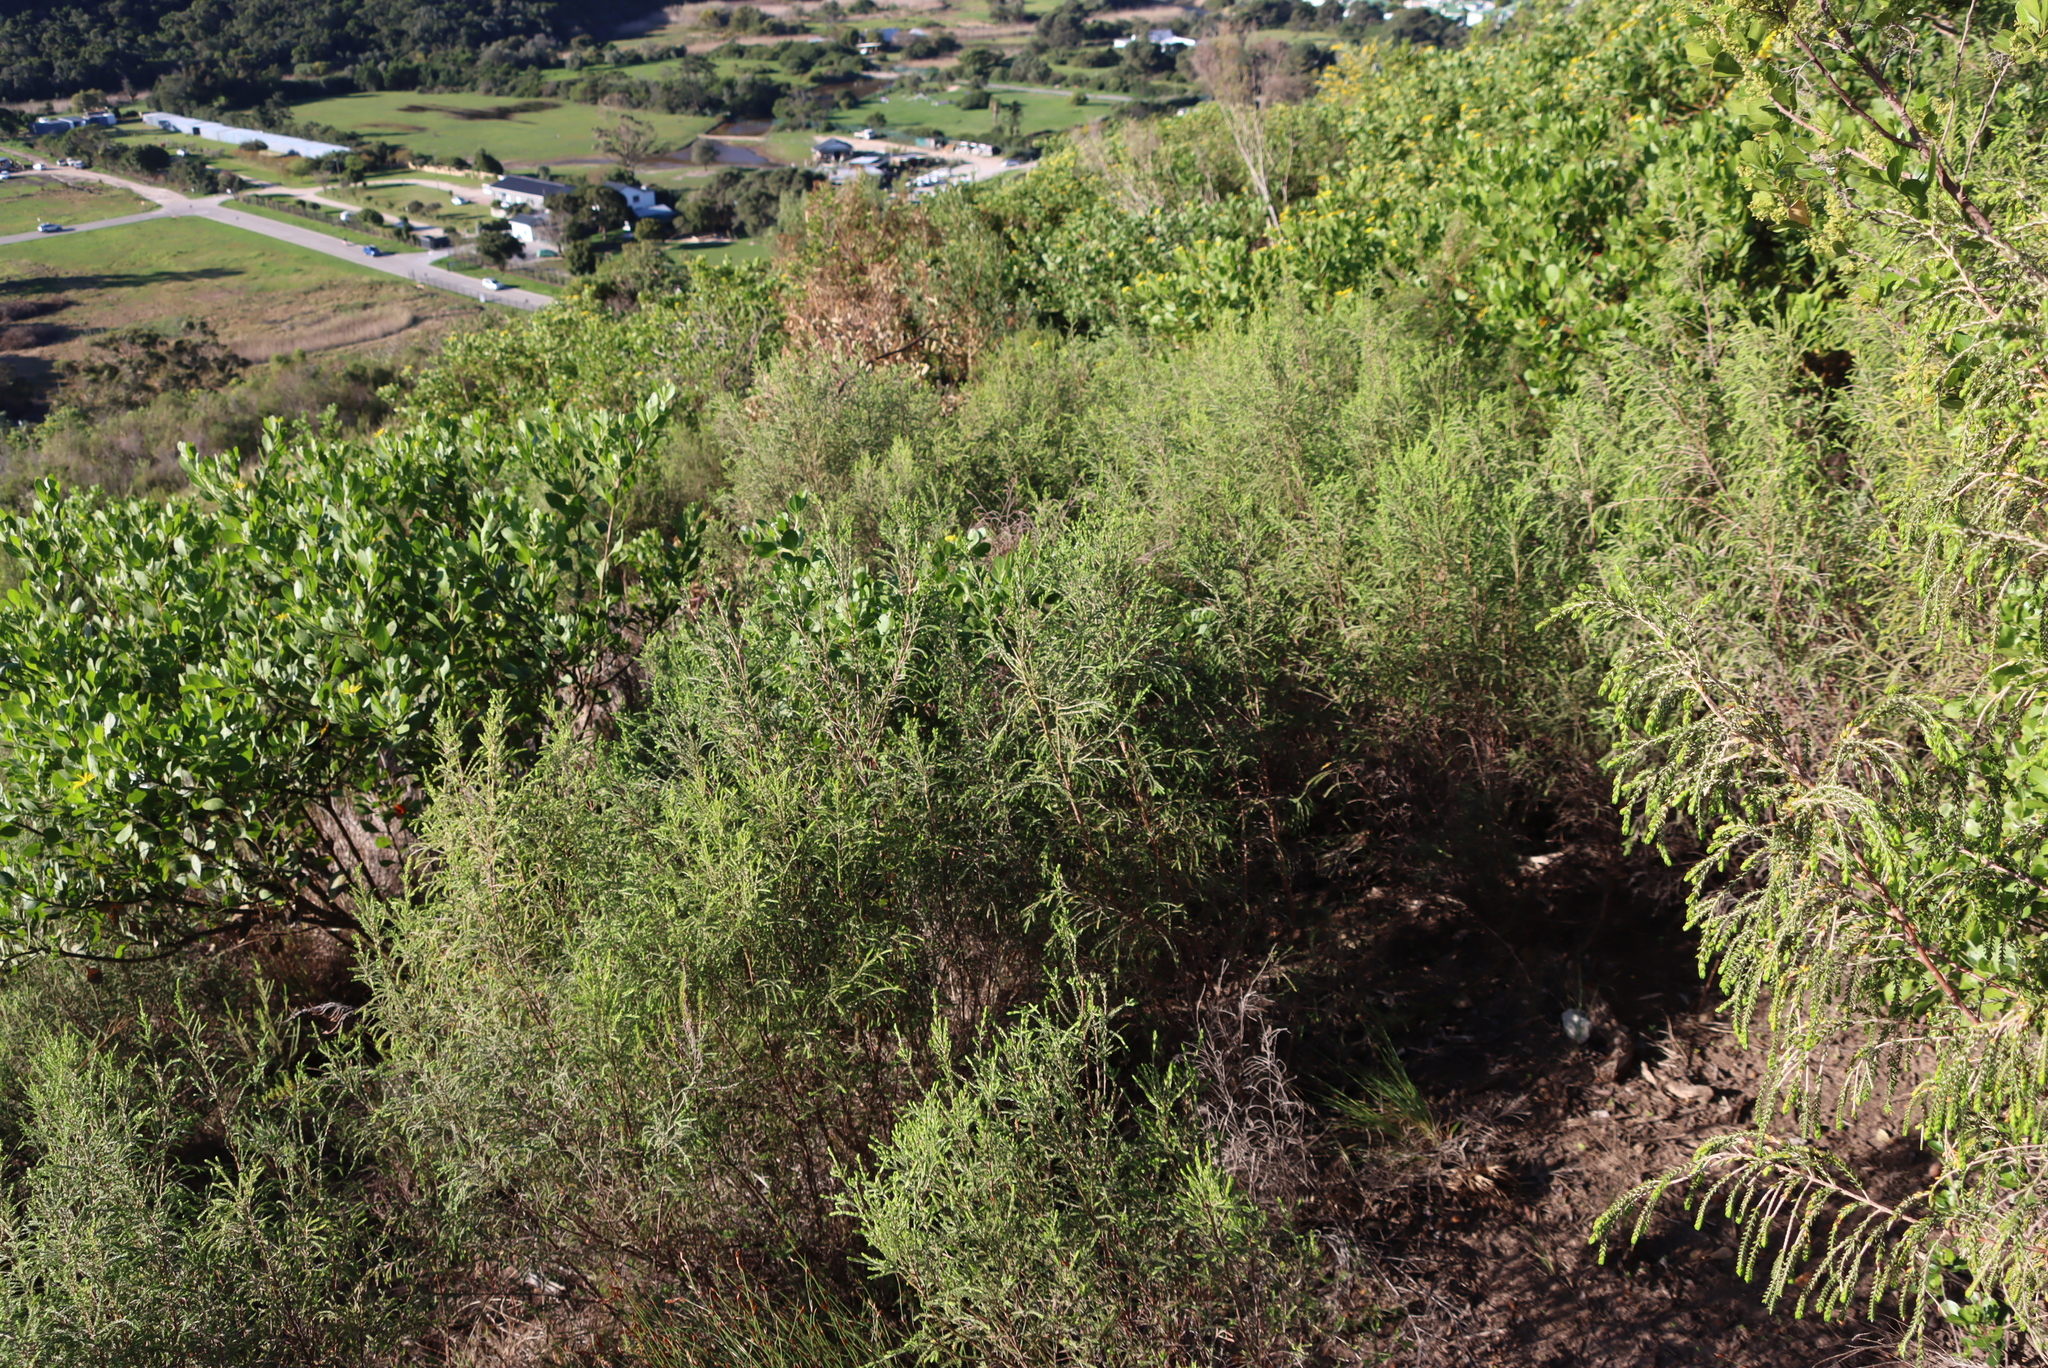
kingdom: Plantae
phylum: Tracheophyta
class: Magnoliopsida
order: Malvales
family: Thymelaeaceae
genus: Passerina
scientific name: Passerina falcifolia
